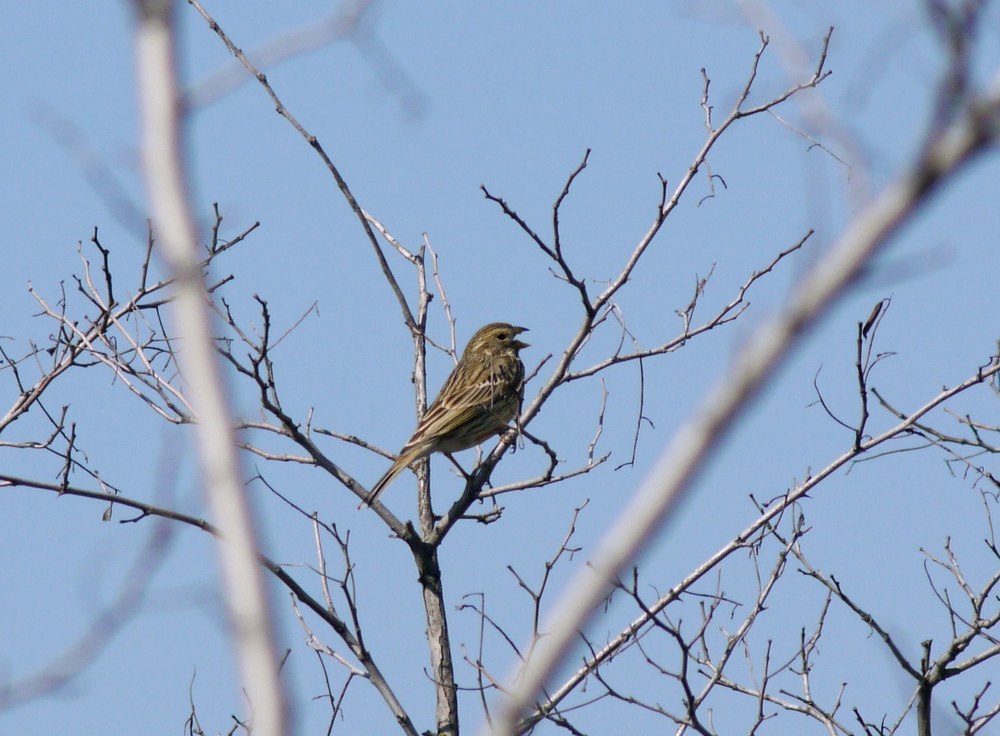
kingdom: Animalia
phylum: Chordata
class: Aves
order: Passeriformes
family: Emberizidae
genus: Emberiza
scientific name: Emberiza calandra
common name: Corn bunting
